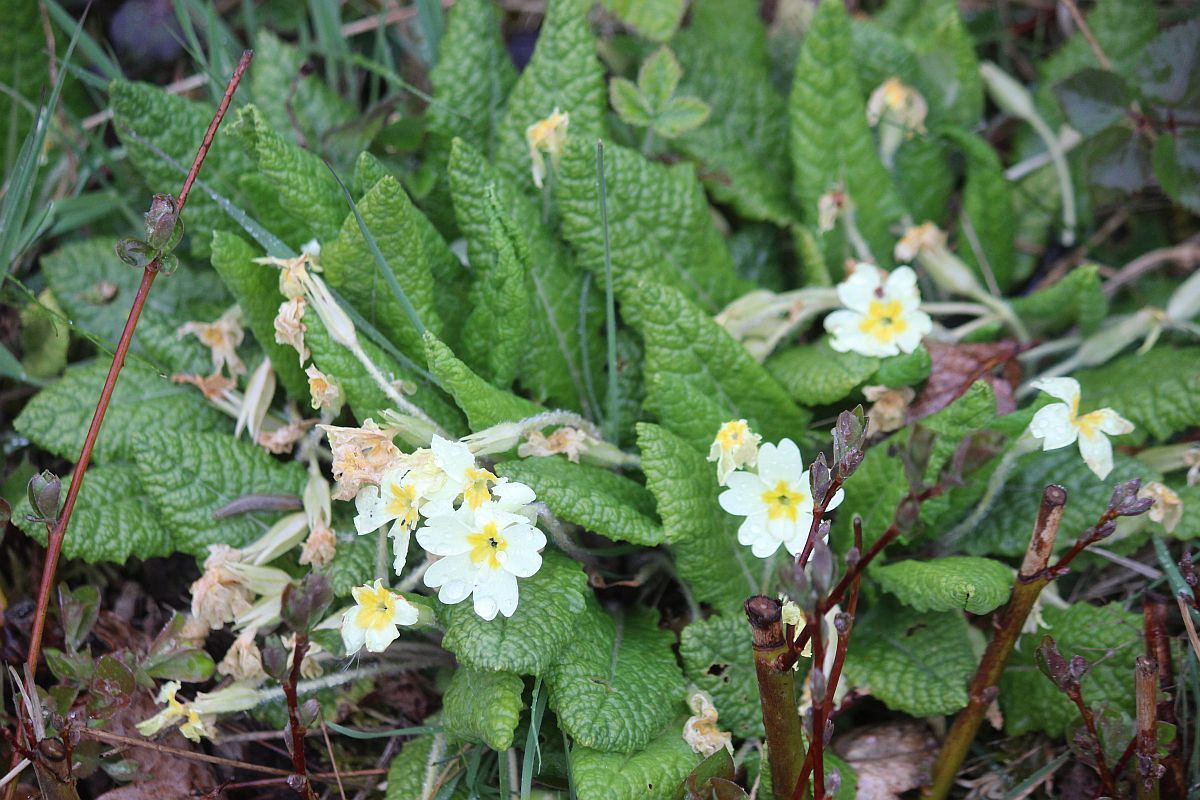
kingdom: Plantae
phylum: Tracheophyta
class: Magnoliopsida
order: Ericales
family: Primulaceae
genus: Primula
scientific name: Primula vulgaris
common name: Primrose
